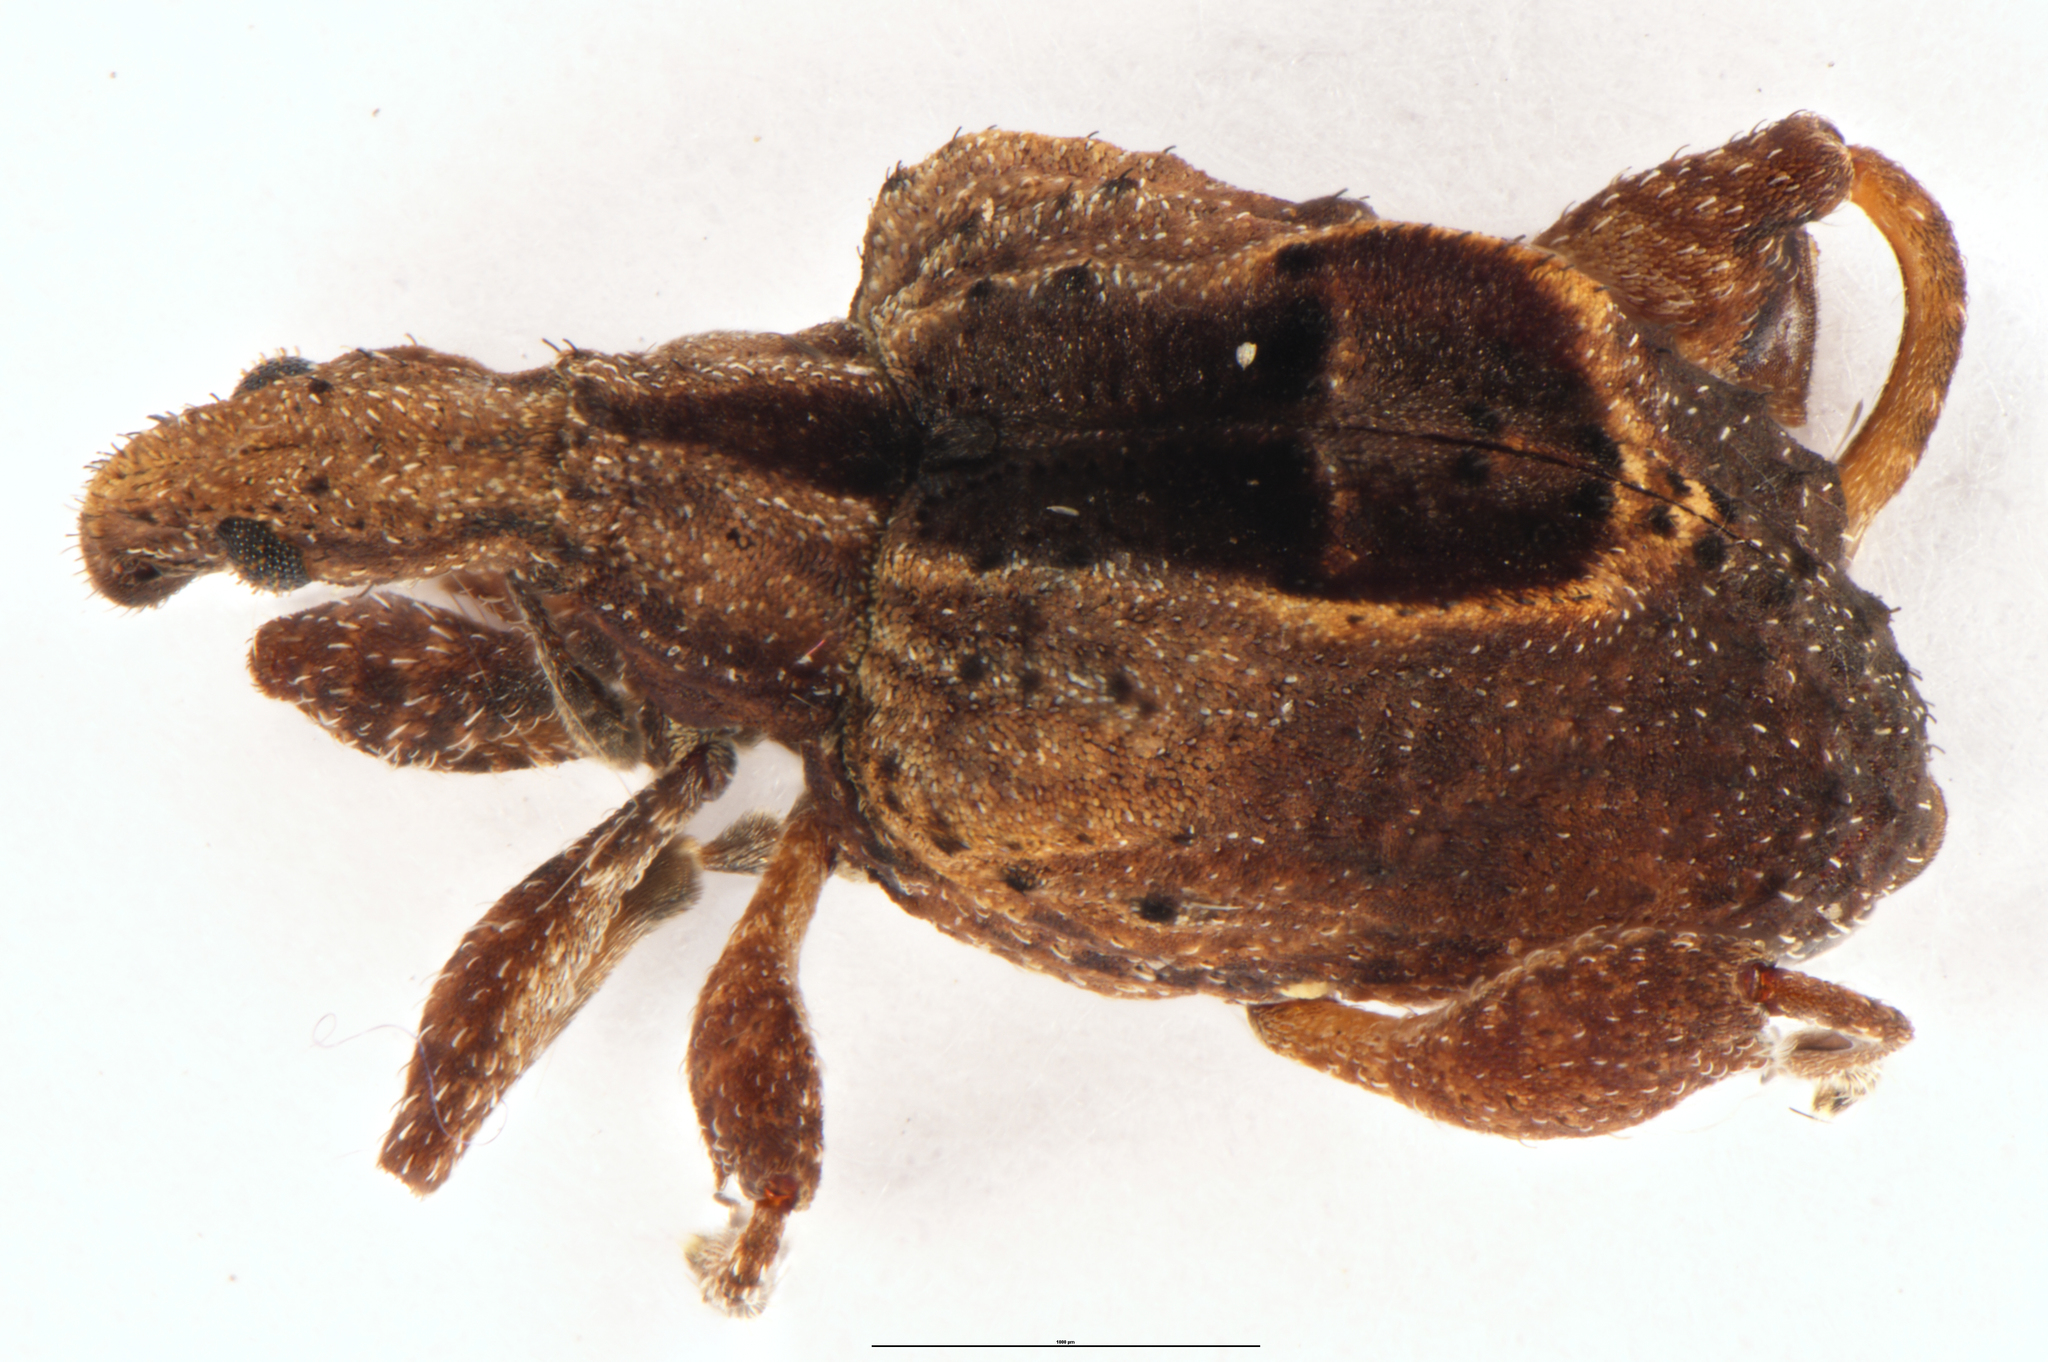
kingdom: Animalia
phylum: Arthropoda
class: Insecta
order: Coleoptera
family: Curculionidae
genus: Stephanorrhynchus
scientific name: Stephanorrhynchus crassus
